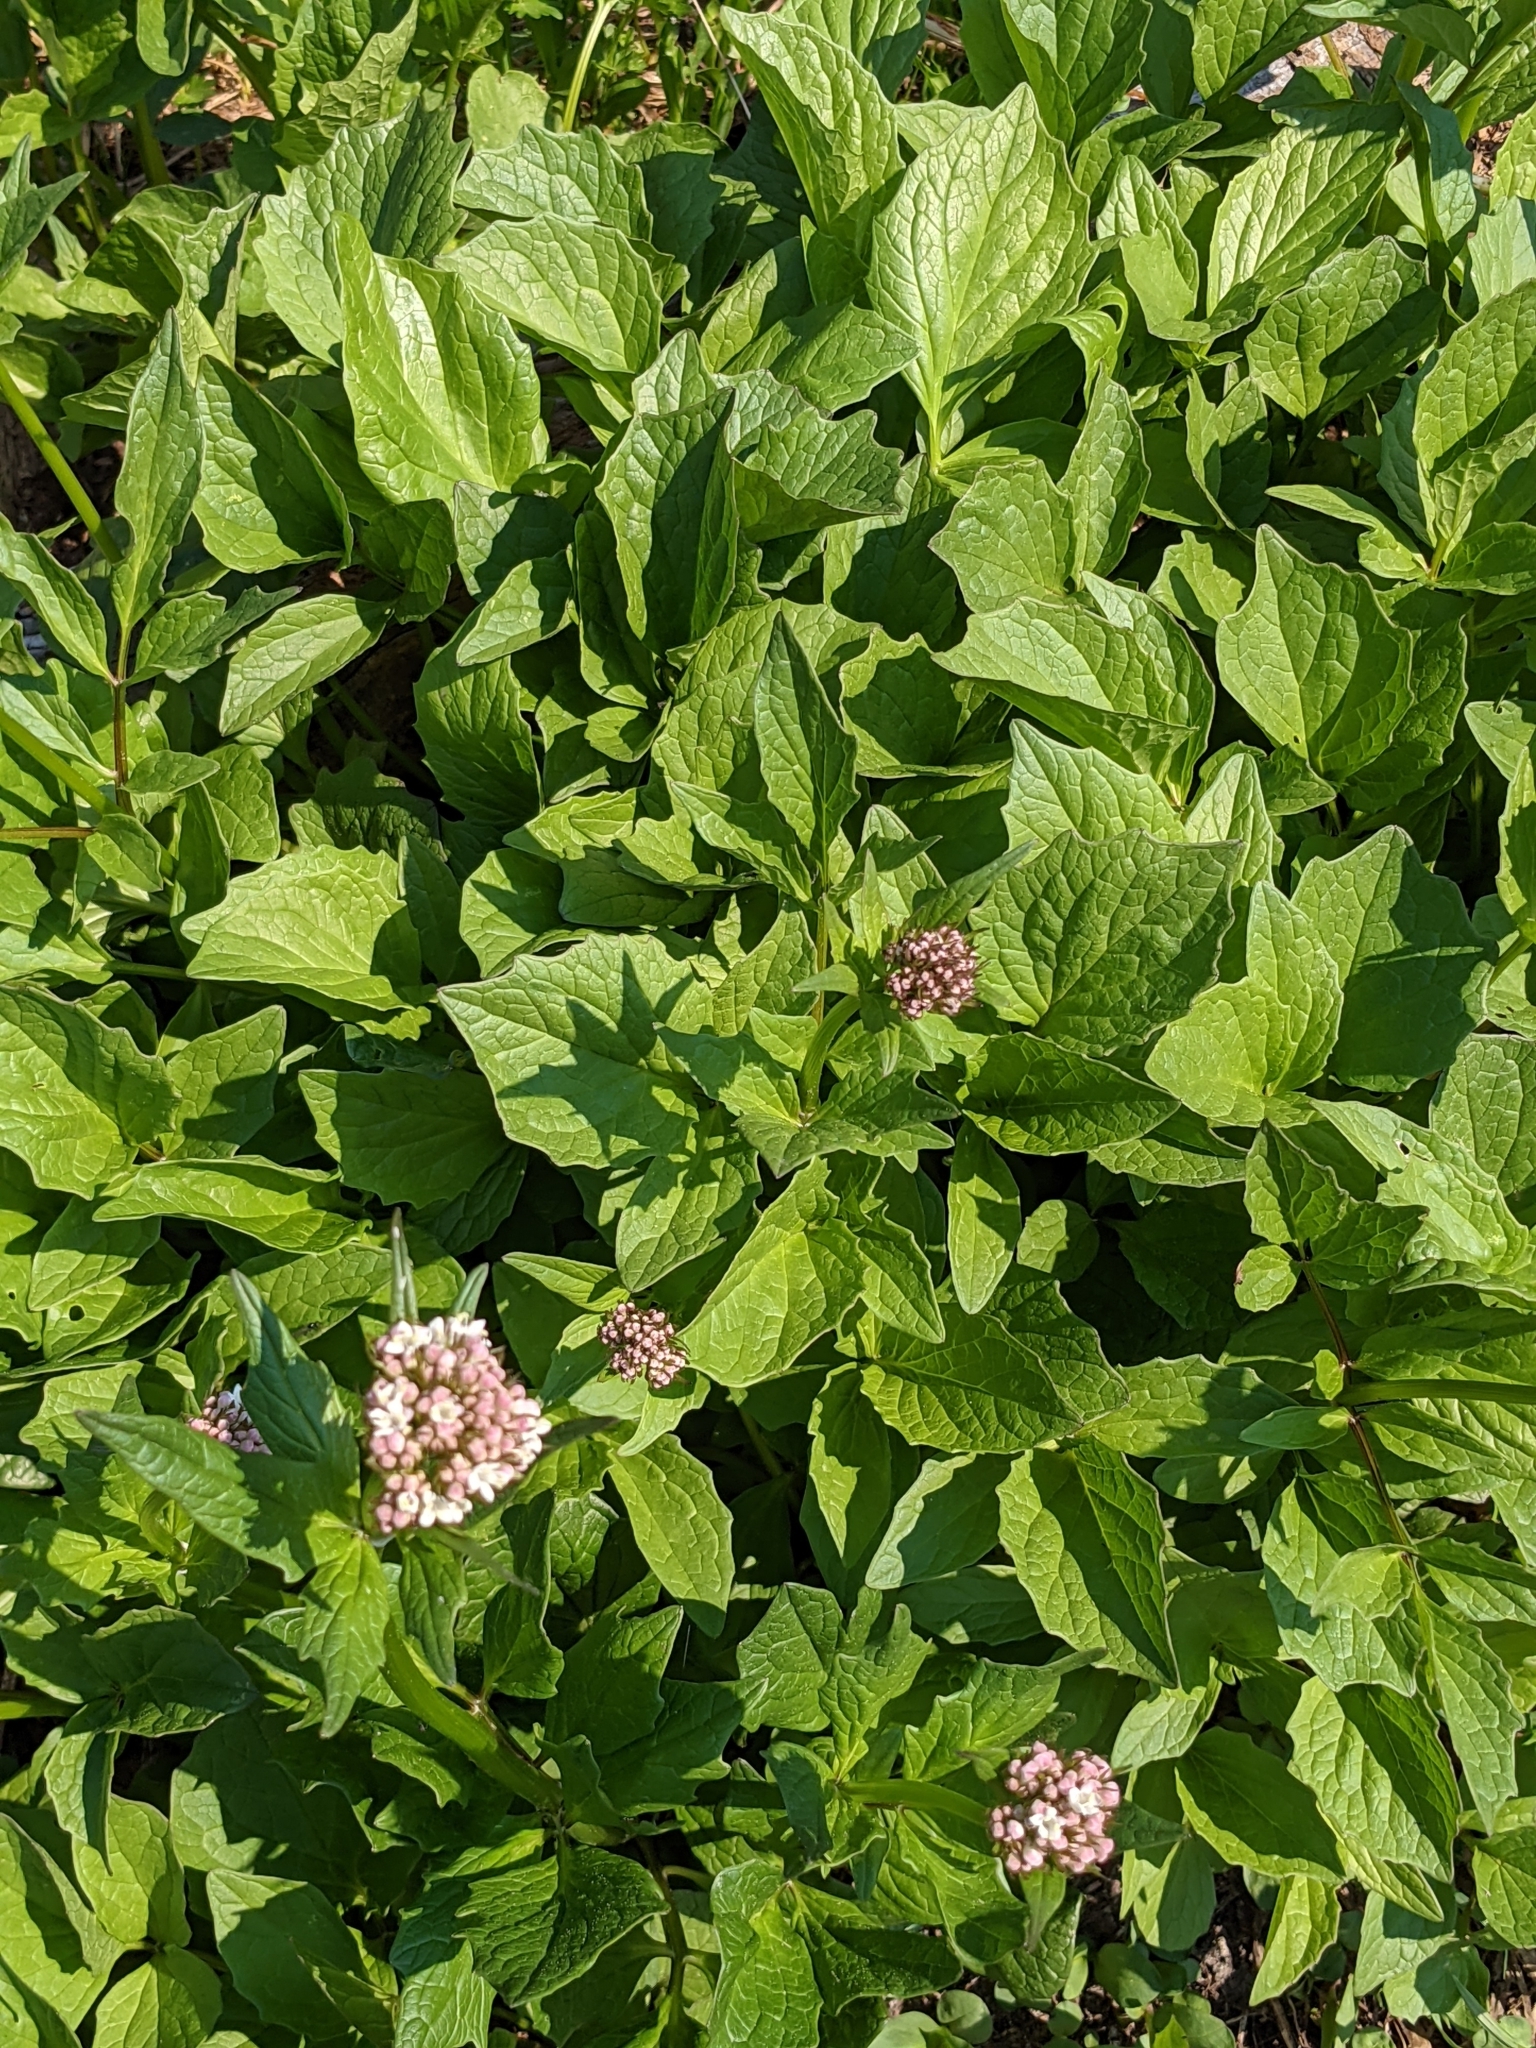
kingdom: Plantae
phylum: Tracheophyta
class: Magnoliopsida
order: Dipsacales
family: Caprifoliaceae
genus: Valeriana
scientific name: Valeriana sitchensis
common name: Pacific valerian
